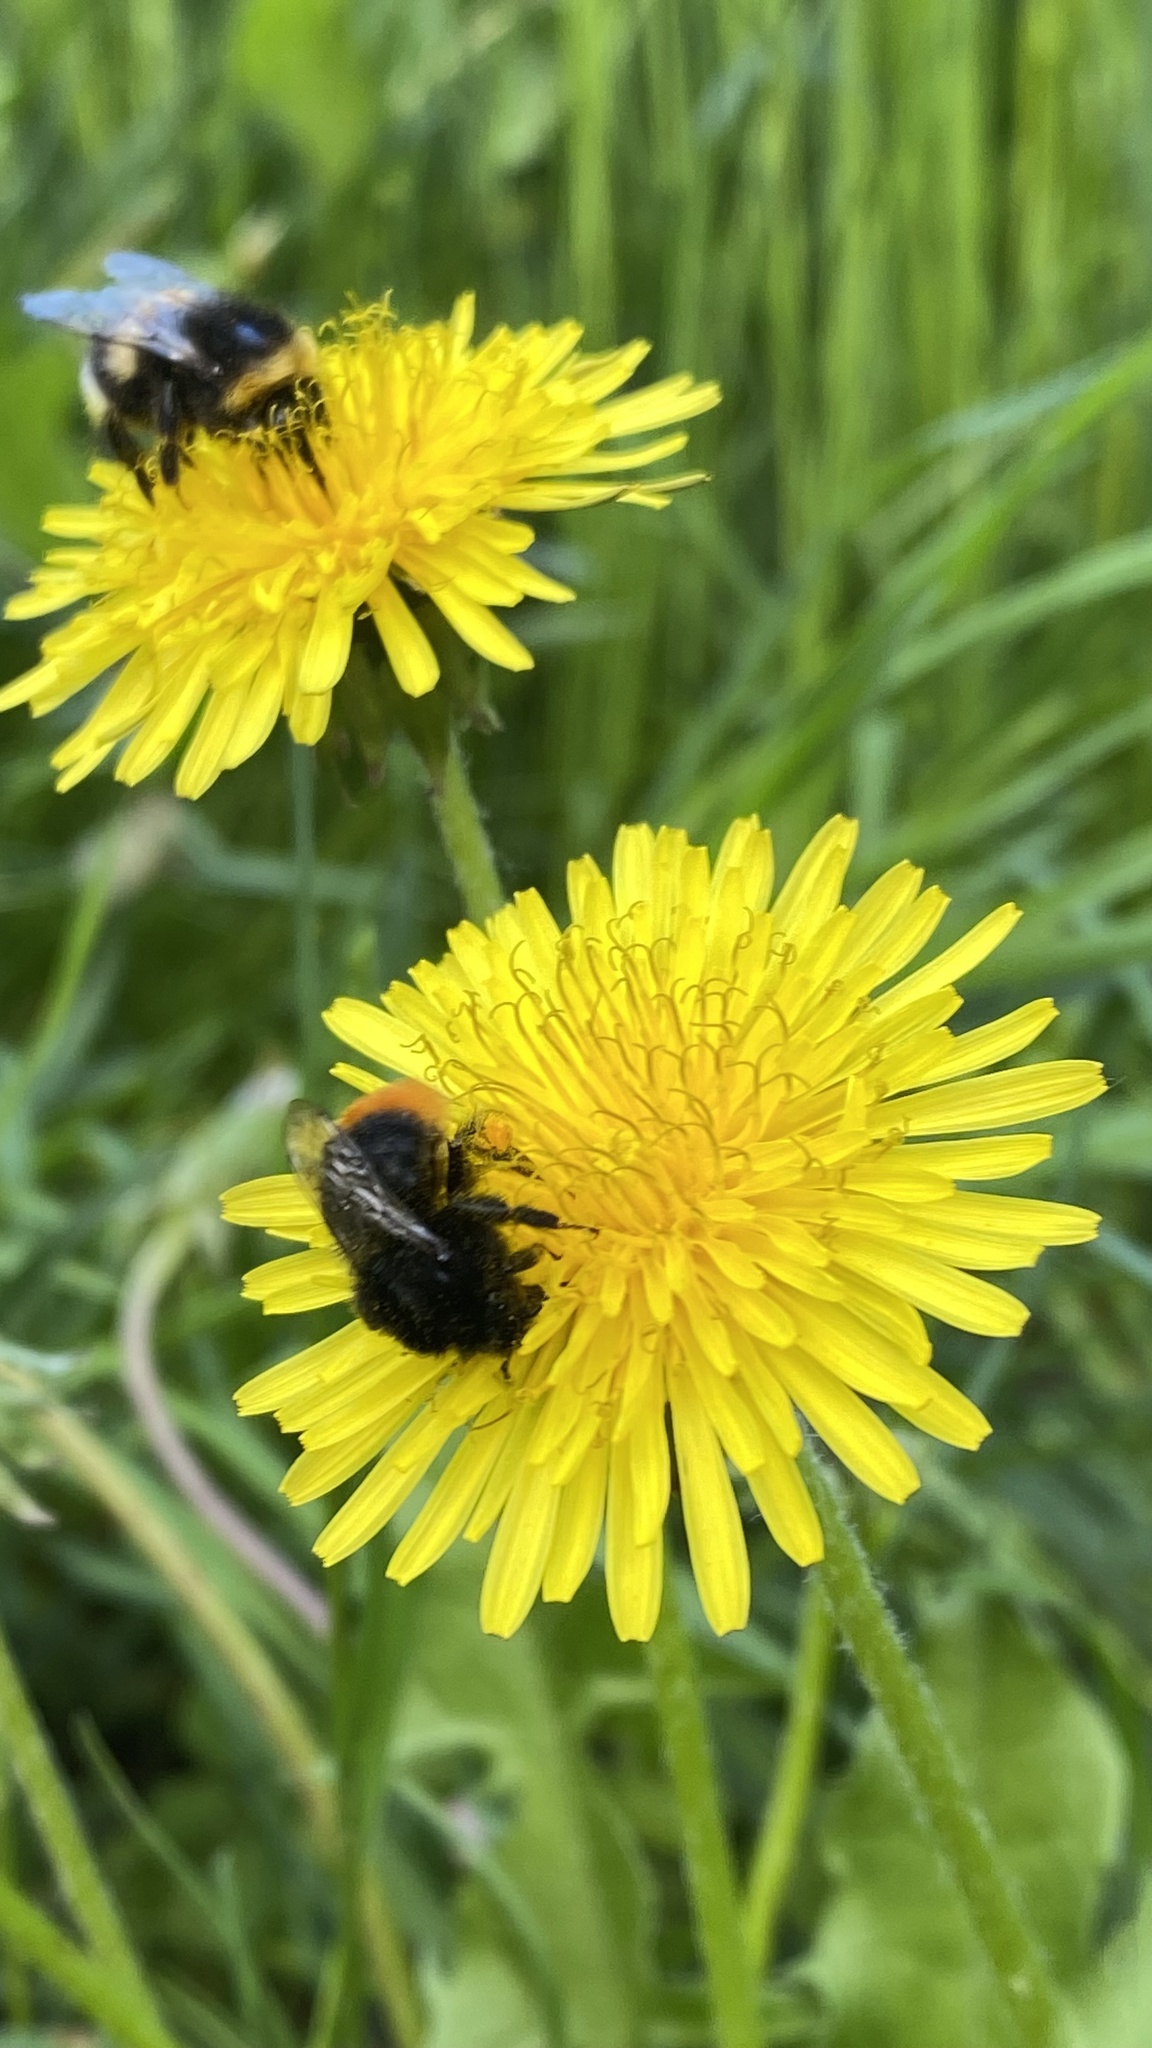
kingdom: Animalia
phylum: Arthropoda
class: Insecta
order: Hymenoptera
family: Apidae
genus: Bombus
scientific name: Bombus lapidarius
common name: Large red-tailed humble-bee
